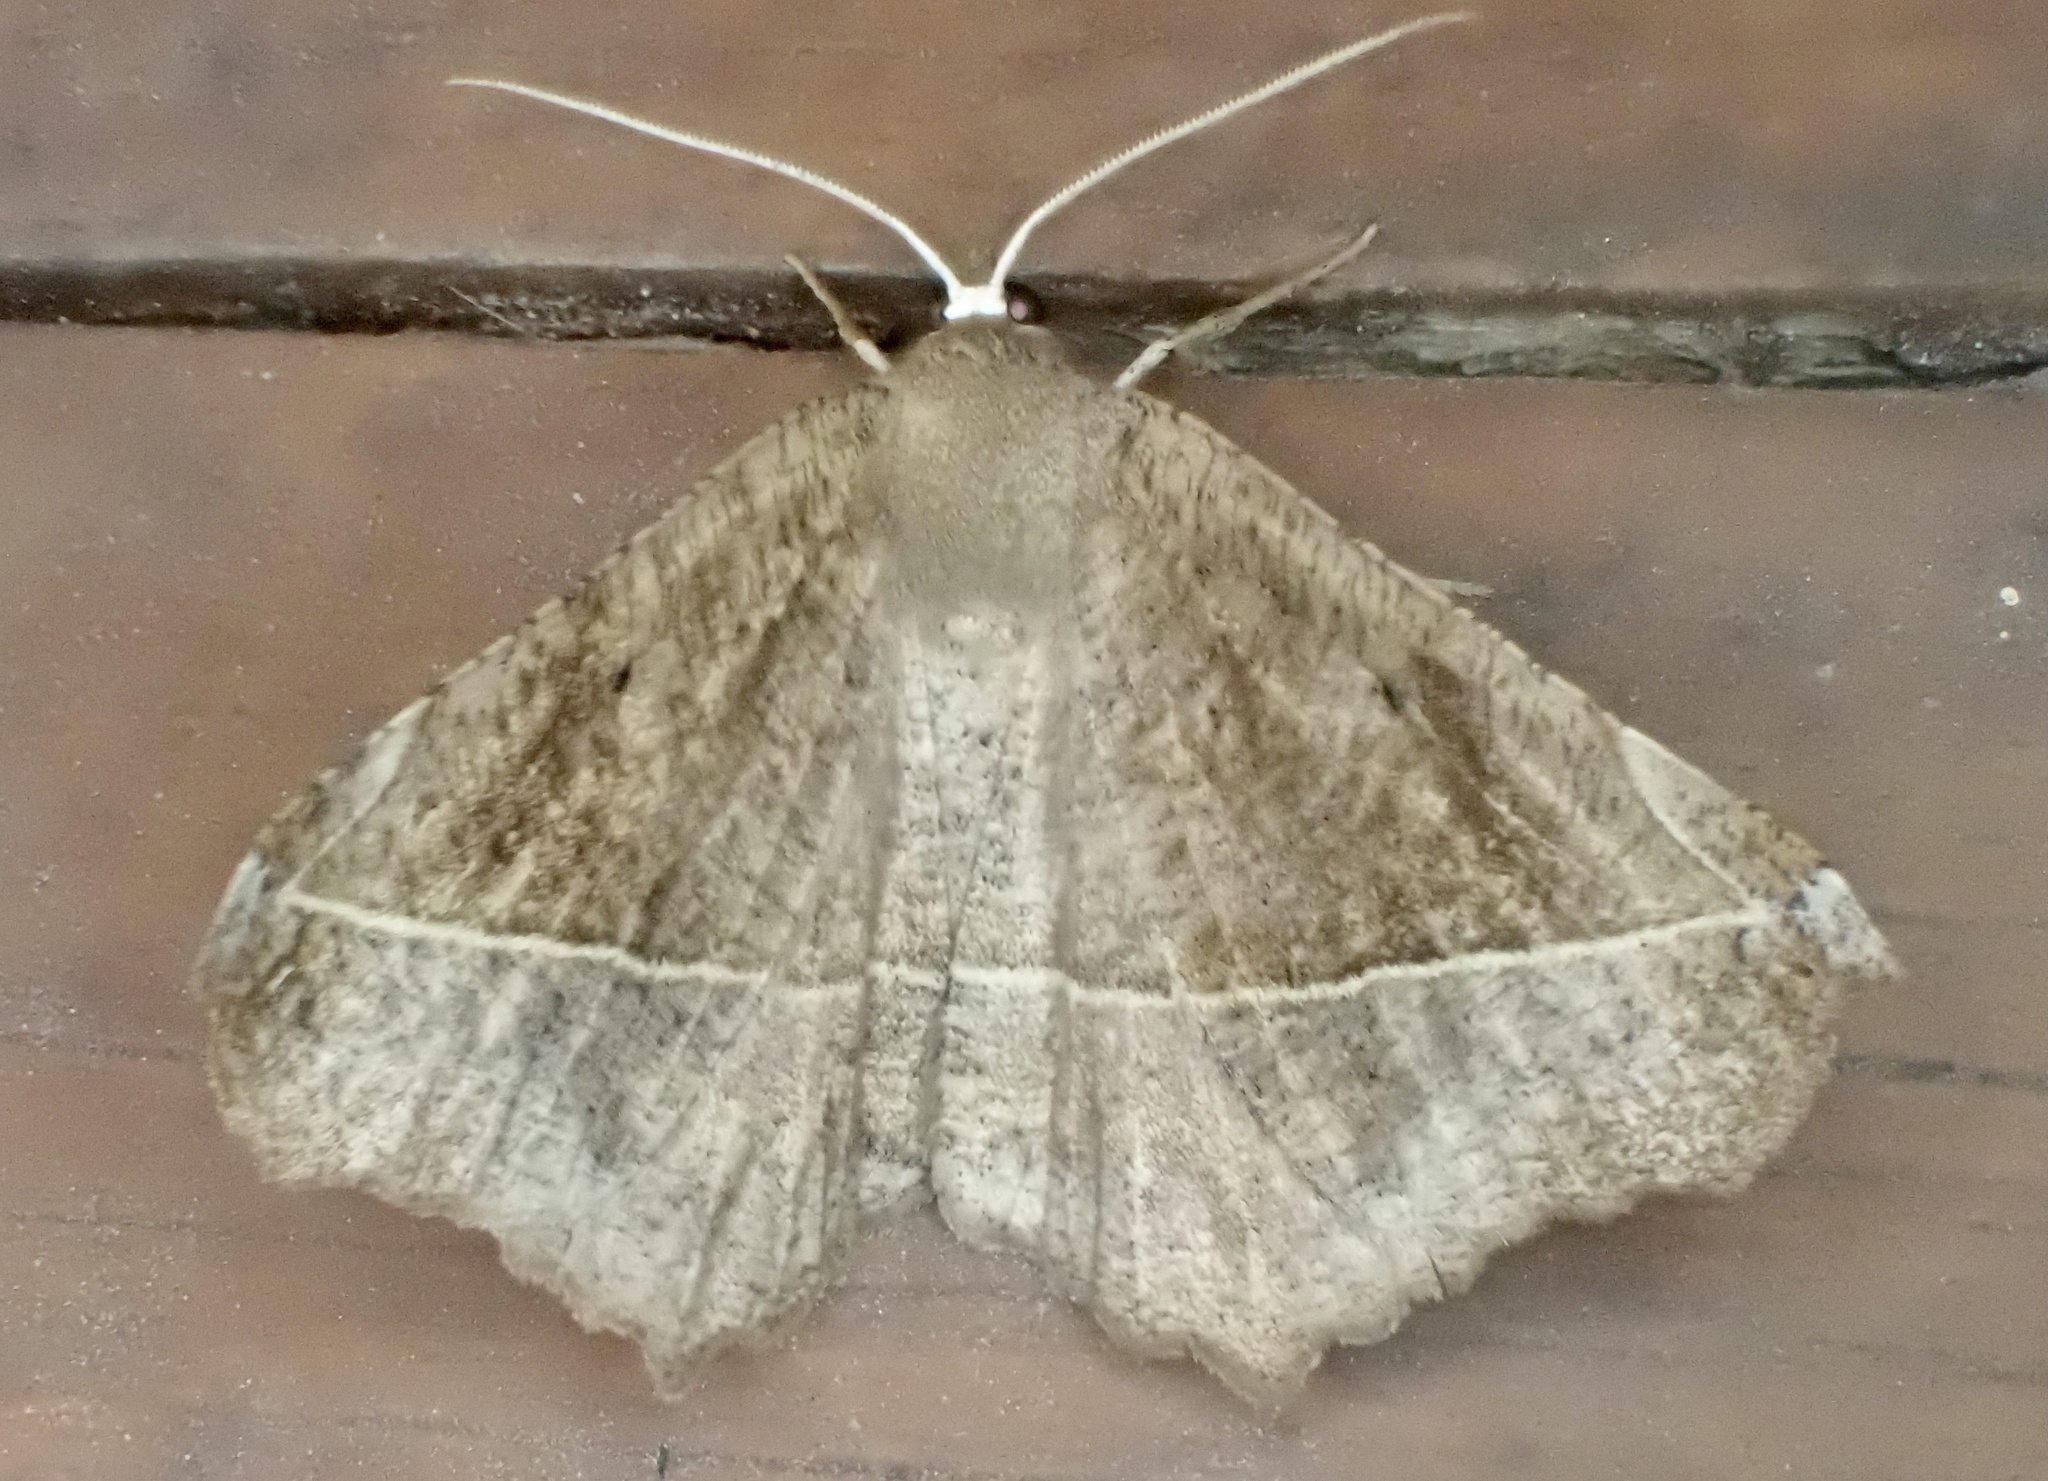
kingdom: Animalia
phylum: Arthropoda
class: Insecta
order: Lepidoptera
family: Geometridae
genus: Eutrapela
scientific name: Eutrapela clemataria
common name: Curved-toothed geometer
